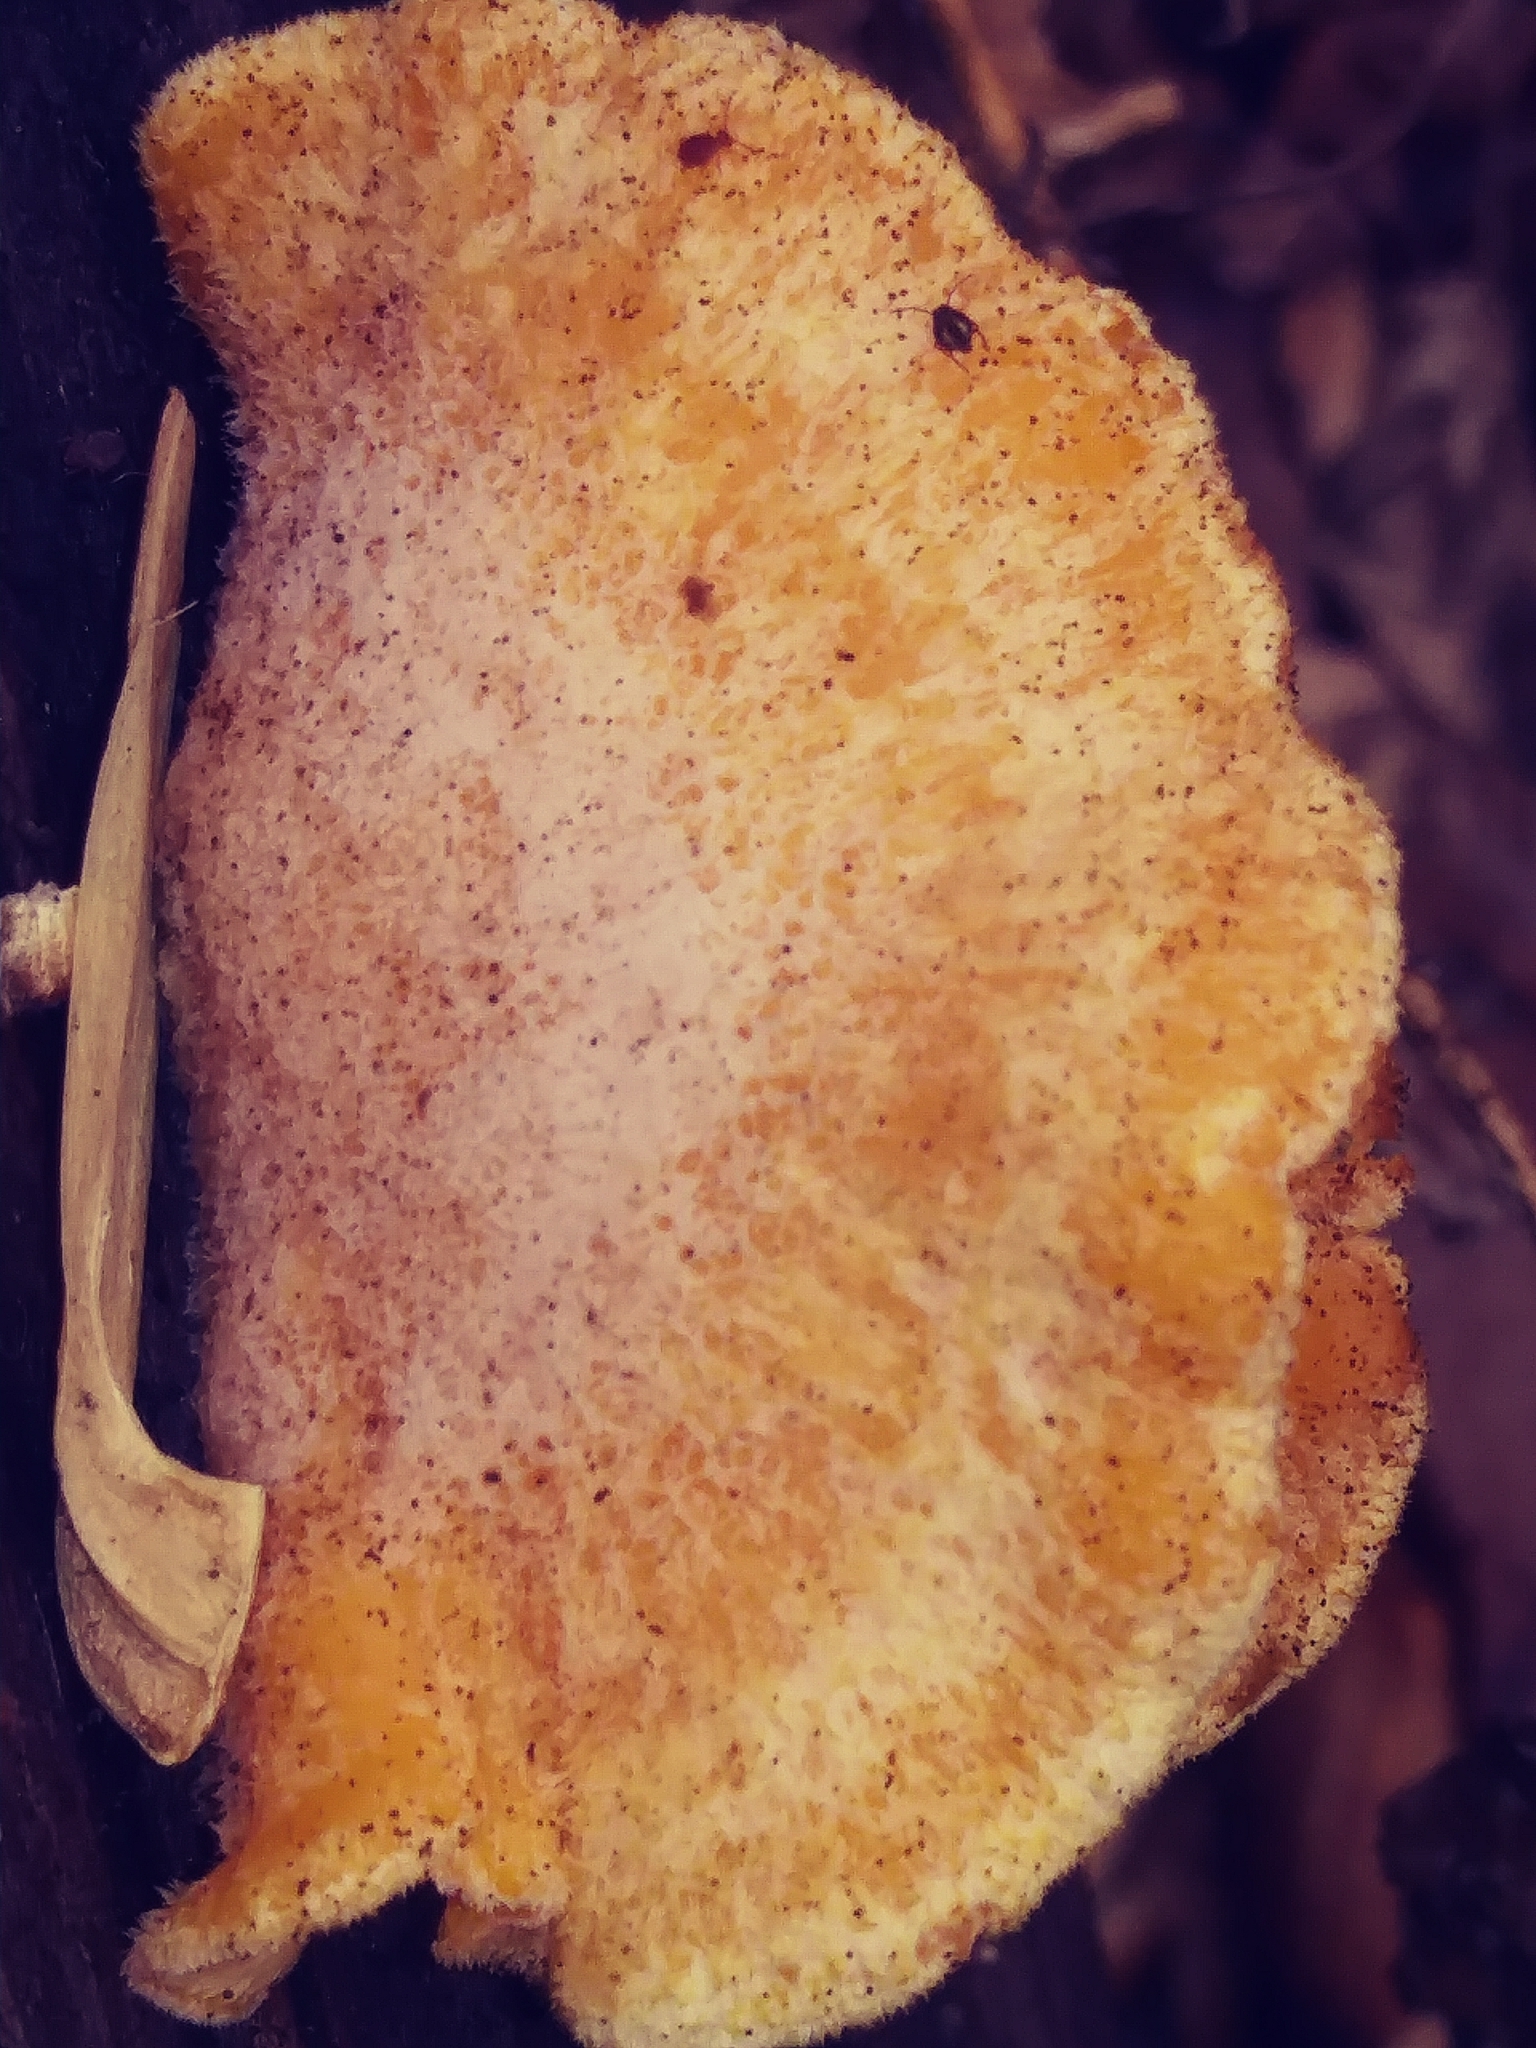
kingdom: Fungi
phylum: Basidiomycota
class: Agaricomycetes
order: Agaricales
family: Phyllotopsidaceae
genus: Phyllotopsis
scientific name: Phyllotopsis nidulans
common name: Orange mock oyster
